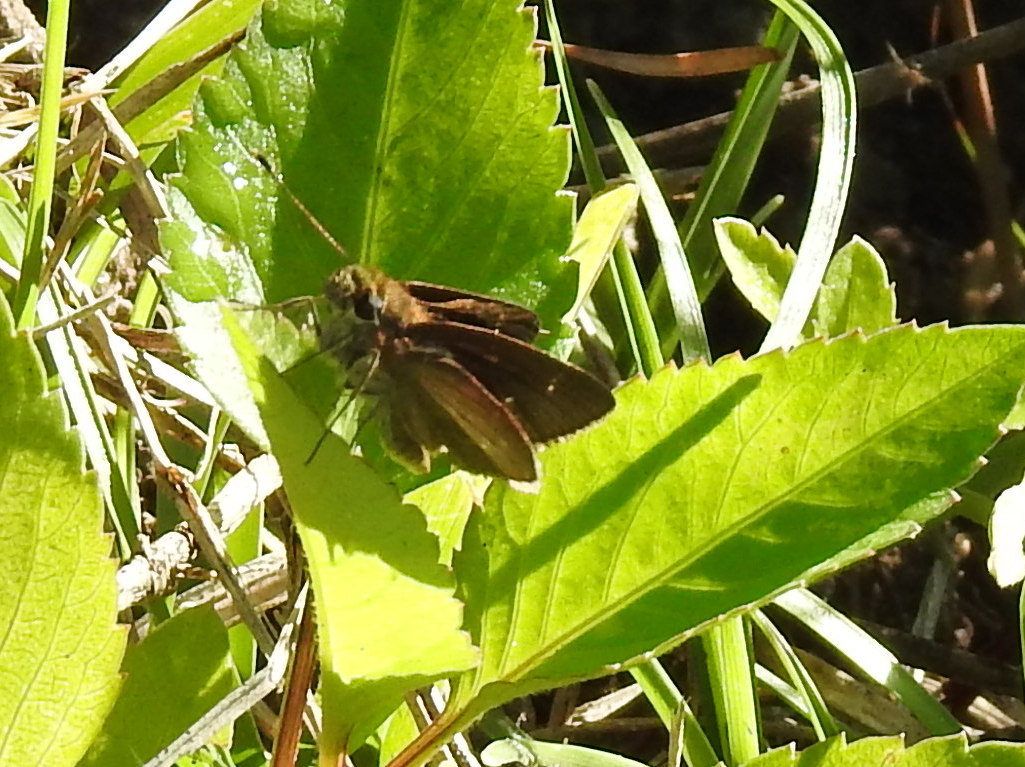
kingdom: Animalia
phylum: Arthropoda
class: Insecta
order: Lepidoptera
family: Hesperiidae
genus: Lerema
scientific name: Lerema accius
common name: Clouded skipper
